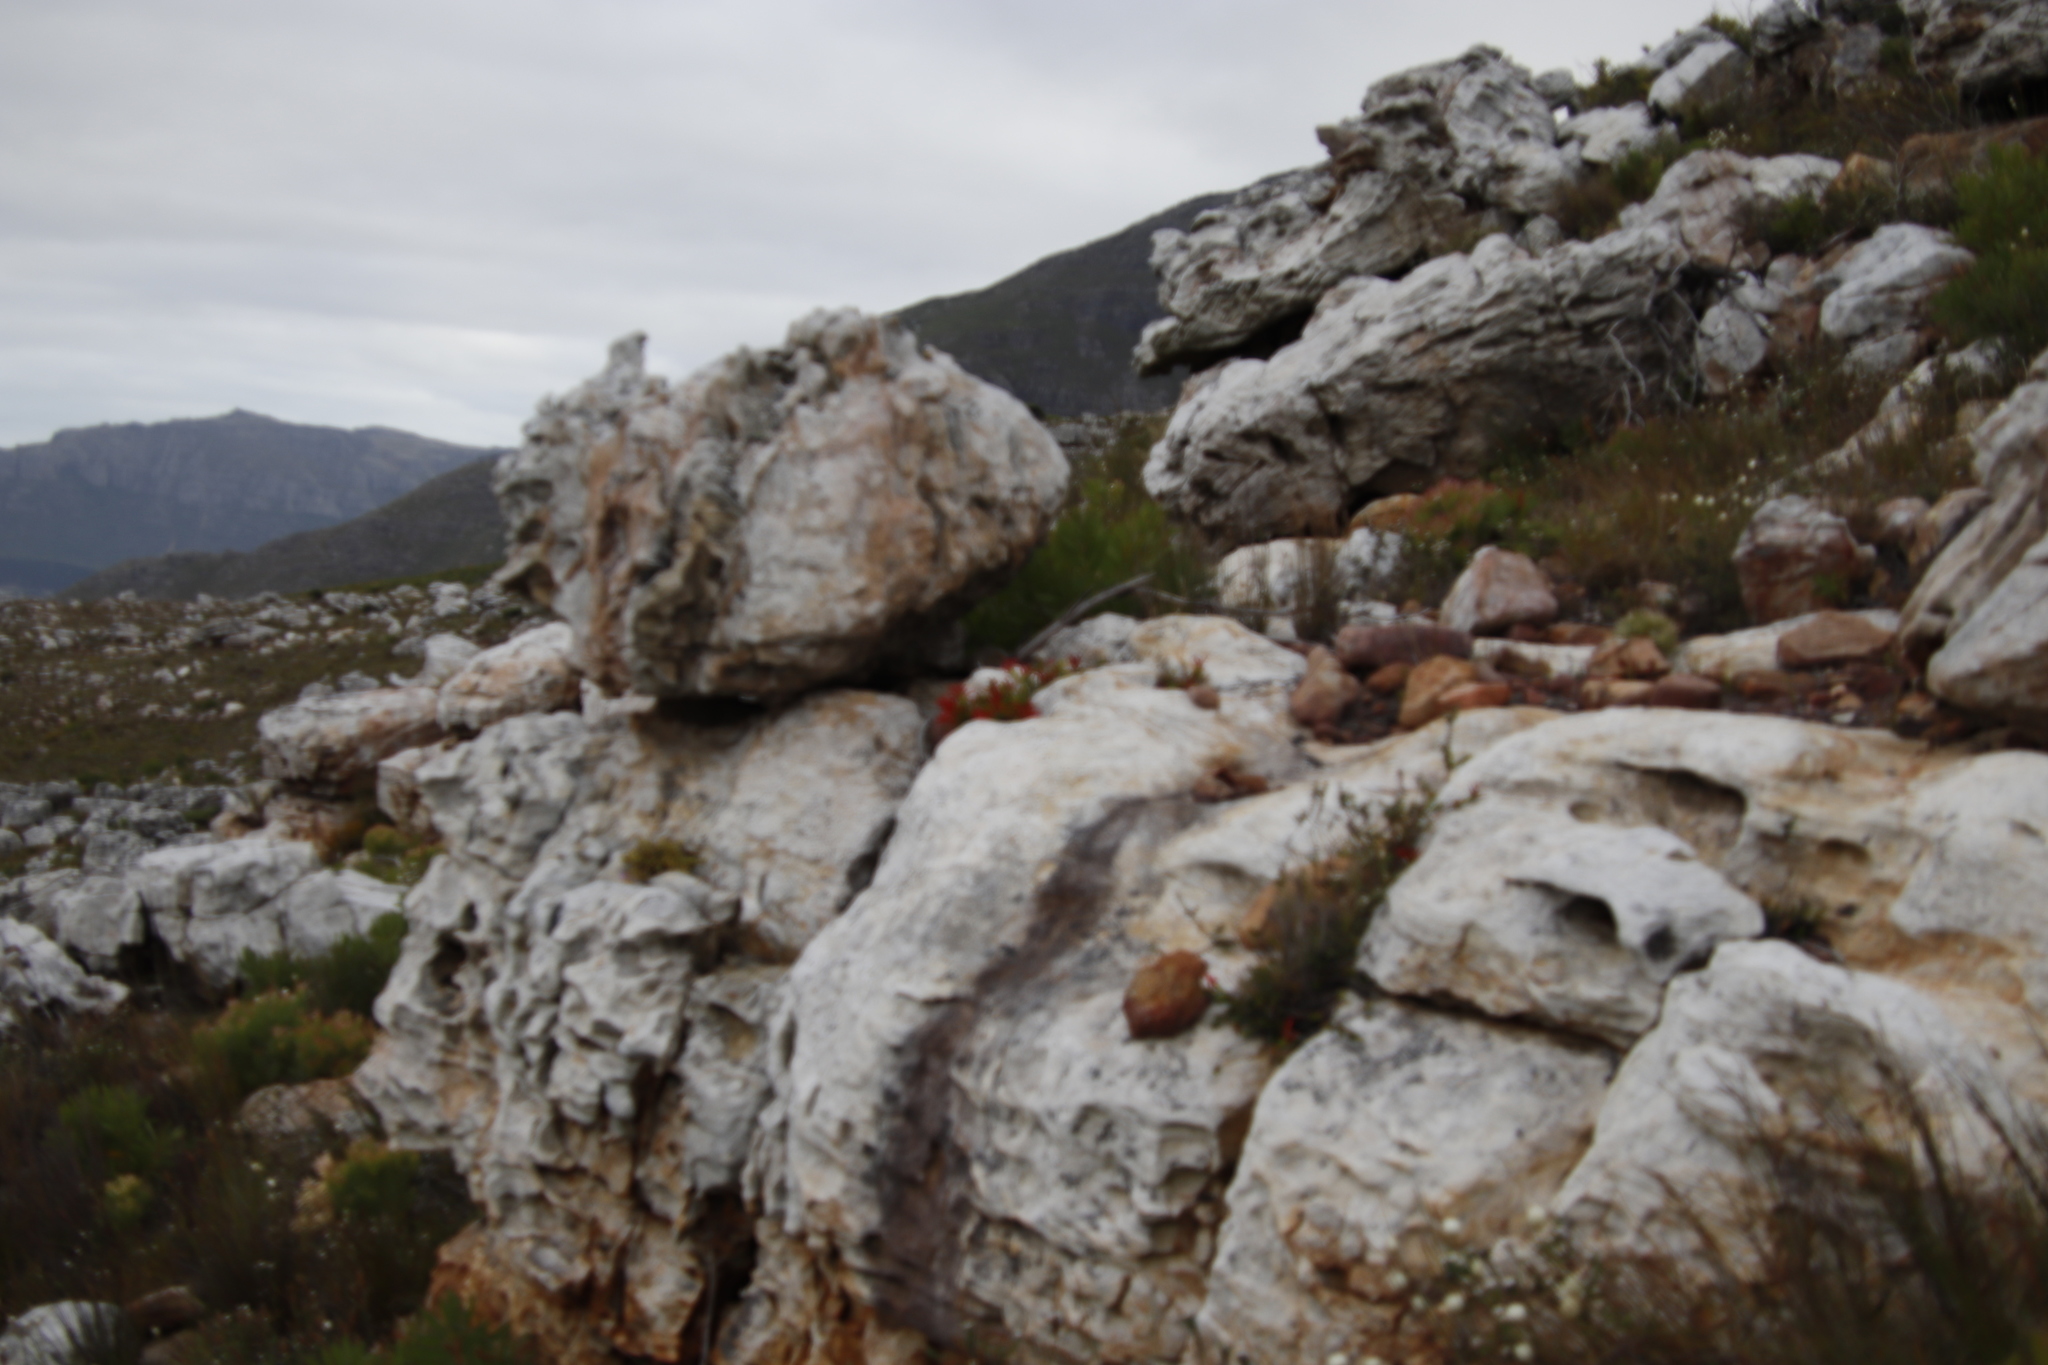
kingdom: Plantae
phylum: Tracheophyta
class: Magnoliopsida
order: Ericales
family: Ericaceae
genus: Erica
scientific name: Erica nevillei
